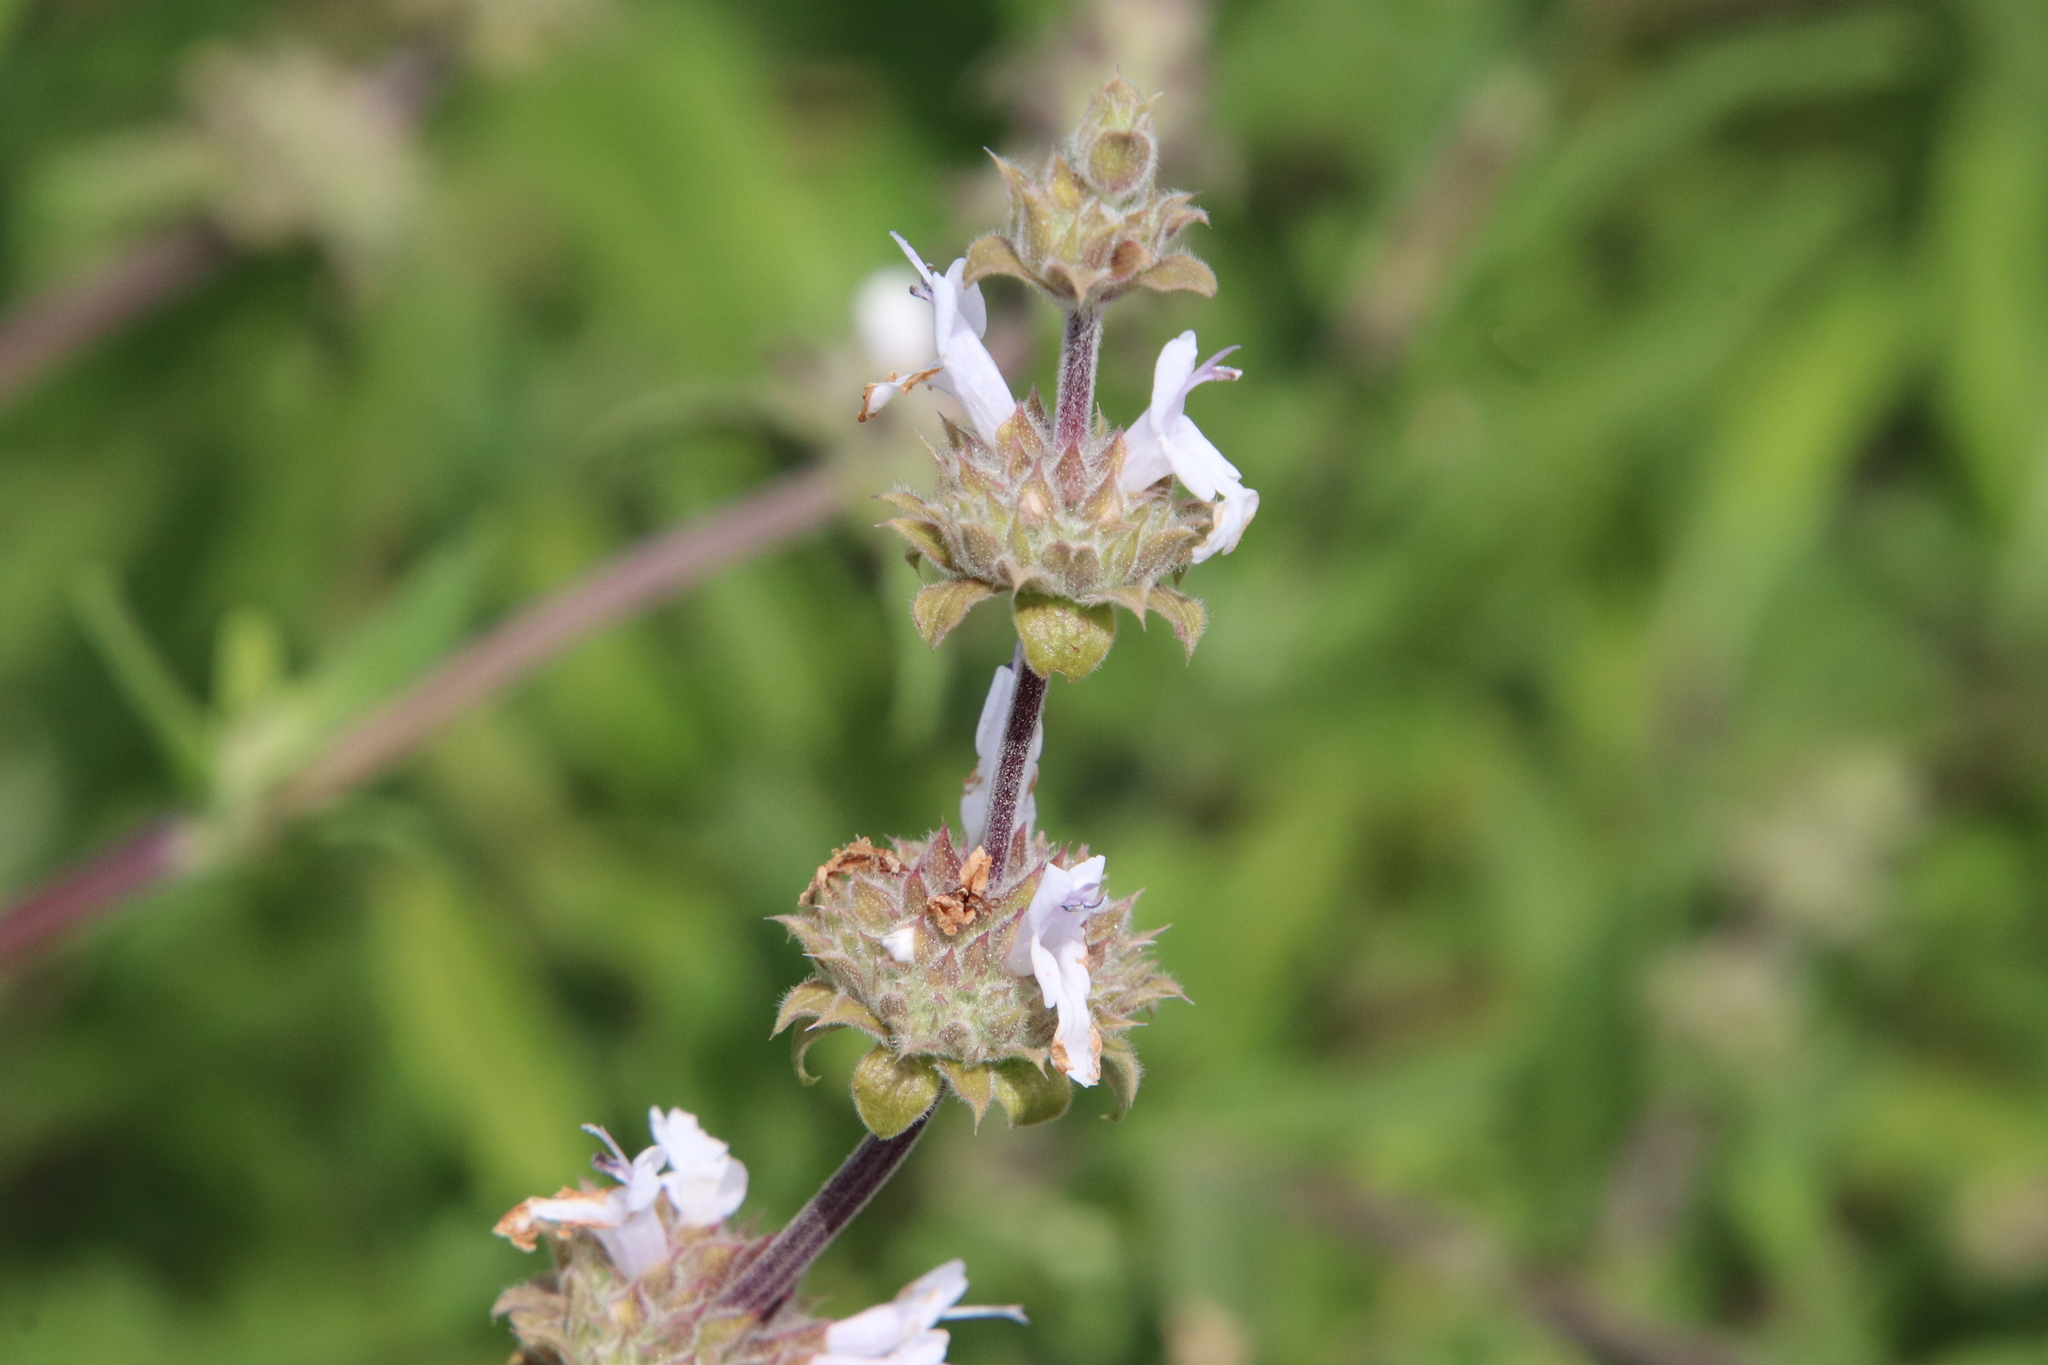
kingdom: Plantae
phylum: Tracheophyta
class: Magnoliopsida
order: Lamiales
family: Lamiaceae
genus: Salvia
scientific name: Salvia mellifera
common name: Black sage
